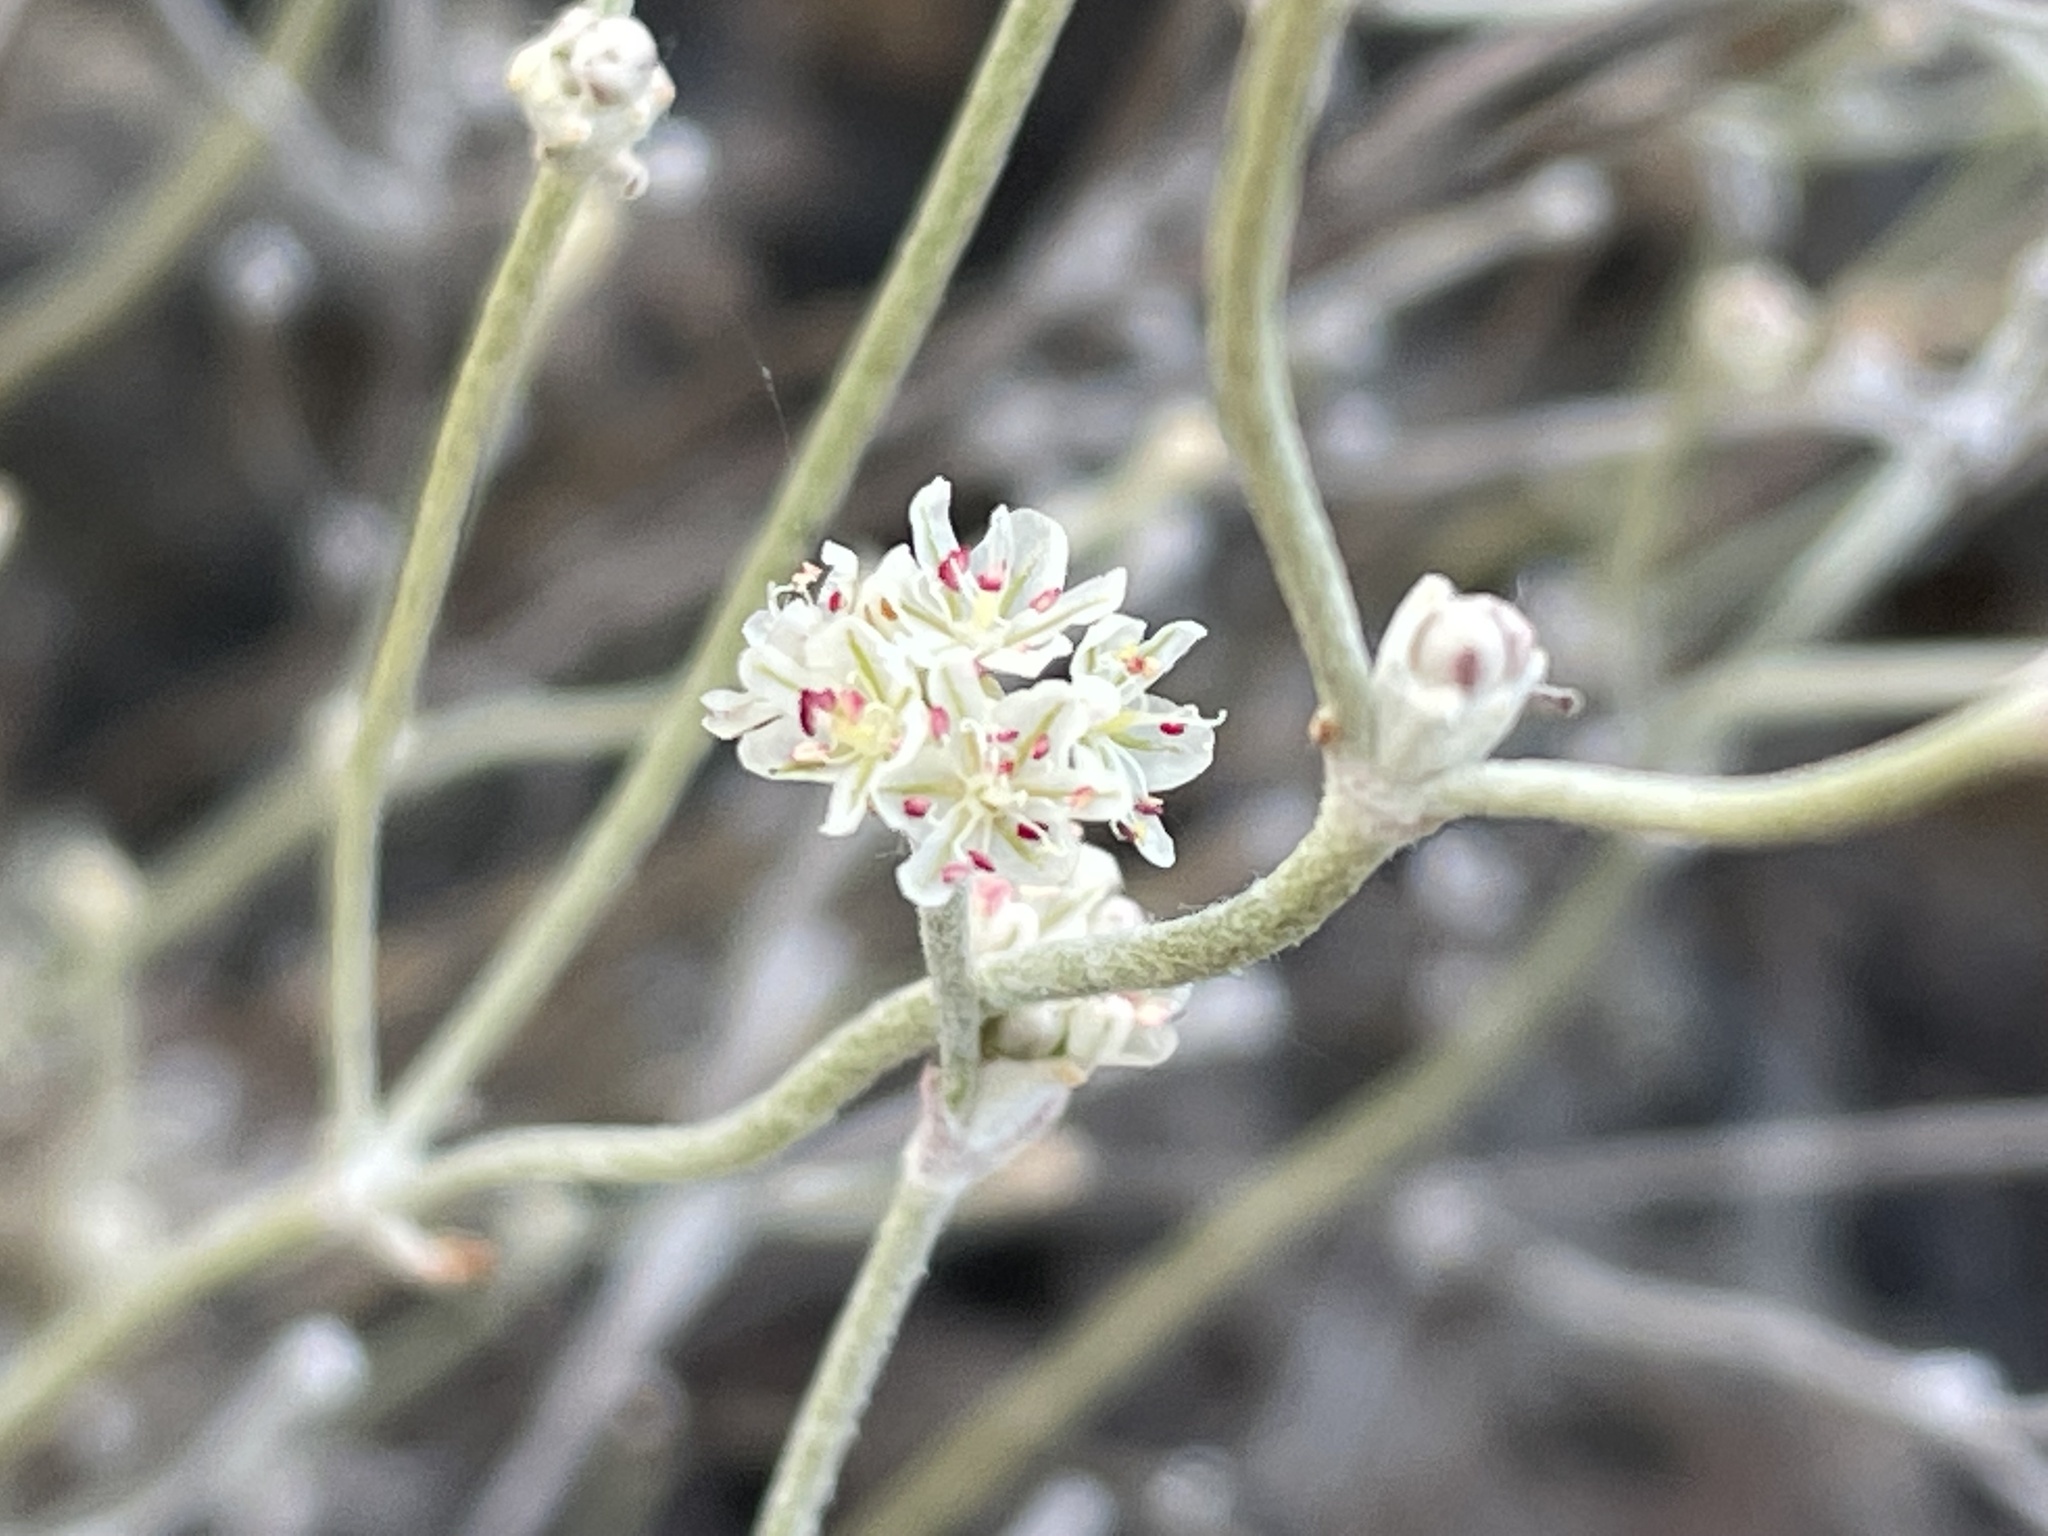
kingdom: Plantae
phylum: Tracheophyta
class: Magnoliopsida
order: Caryophyllales
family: Polygonaceae
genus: Eriogonum
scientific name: Eriogonum niveum
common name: Snow wild buckwheat
